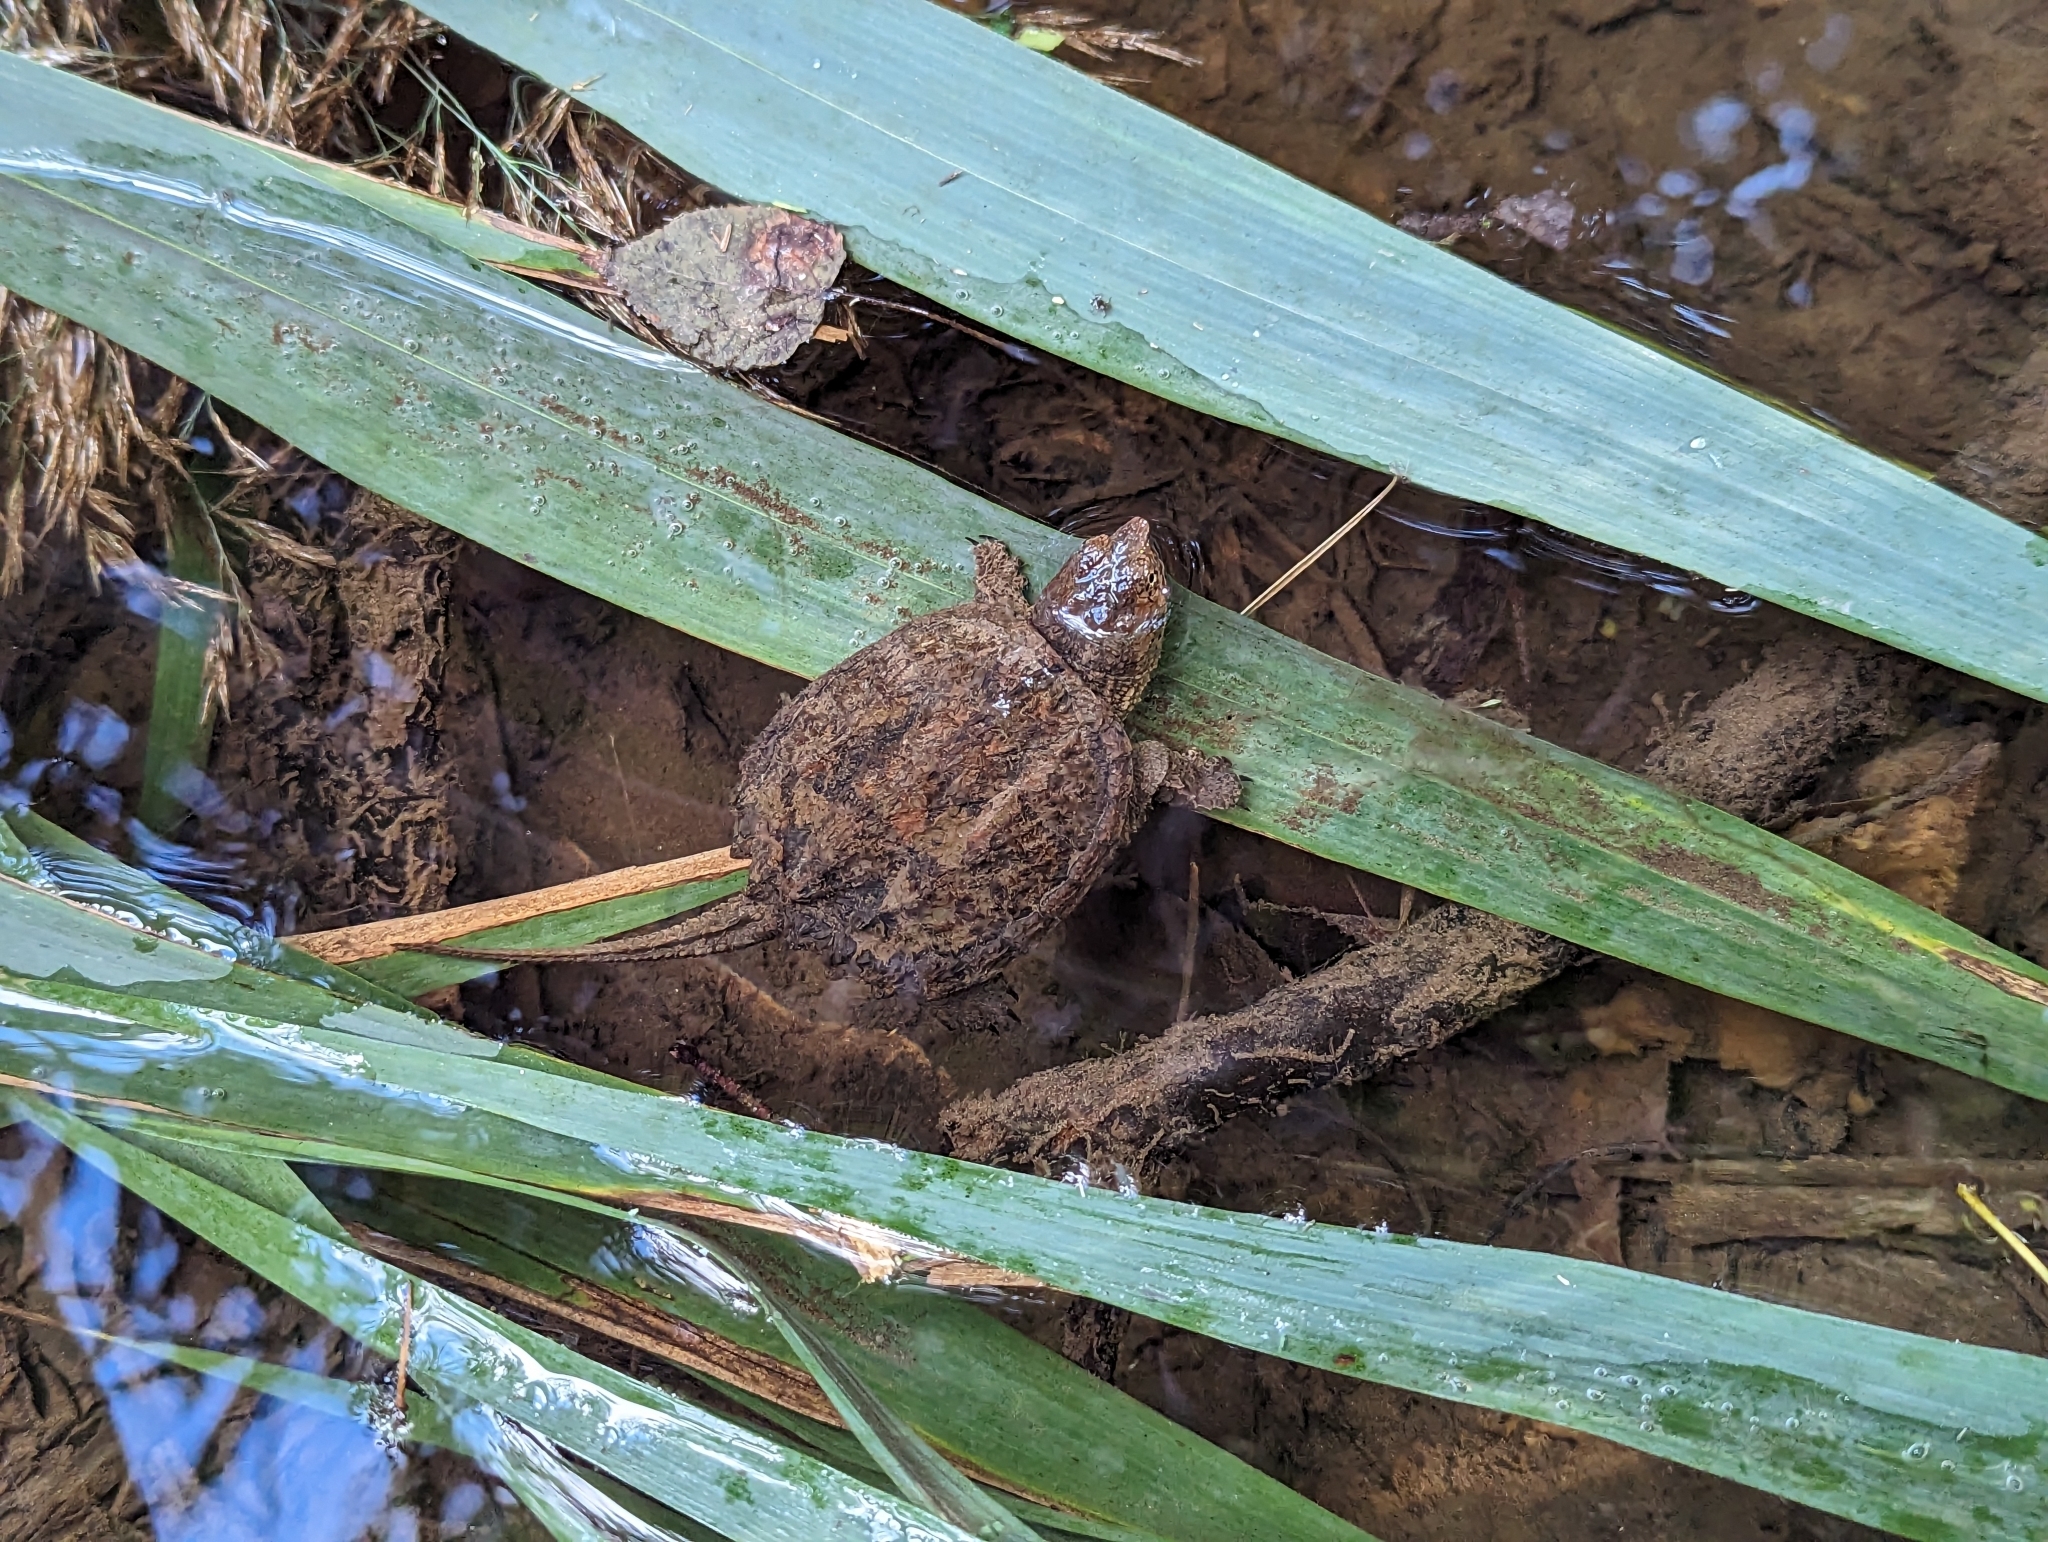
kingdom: Animalia
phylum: Chordata
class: Testudines
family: Chelydridae
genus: Chelydra
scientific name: Chelydra serpentina
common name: Common snapping turtle
